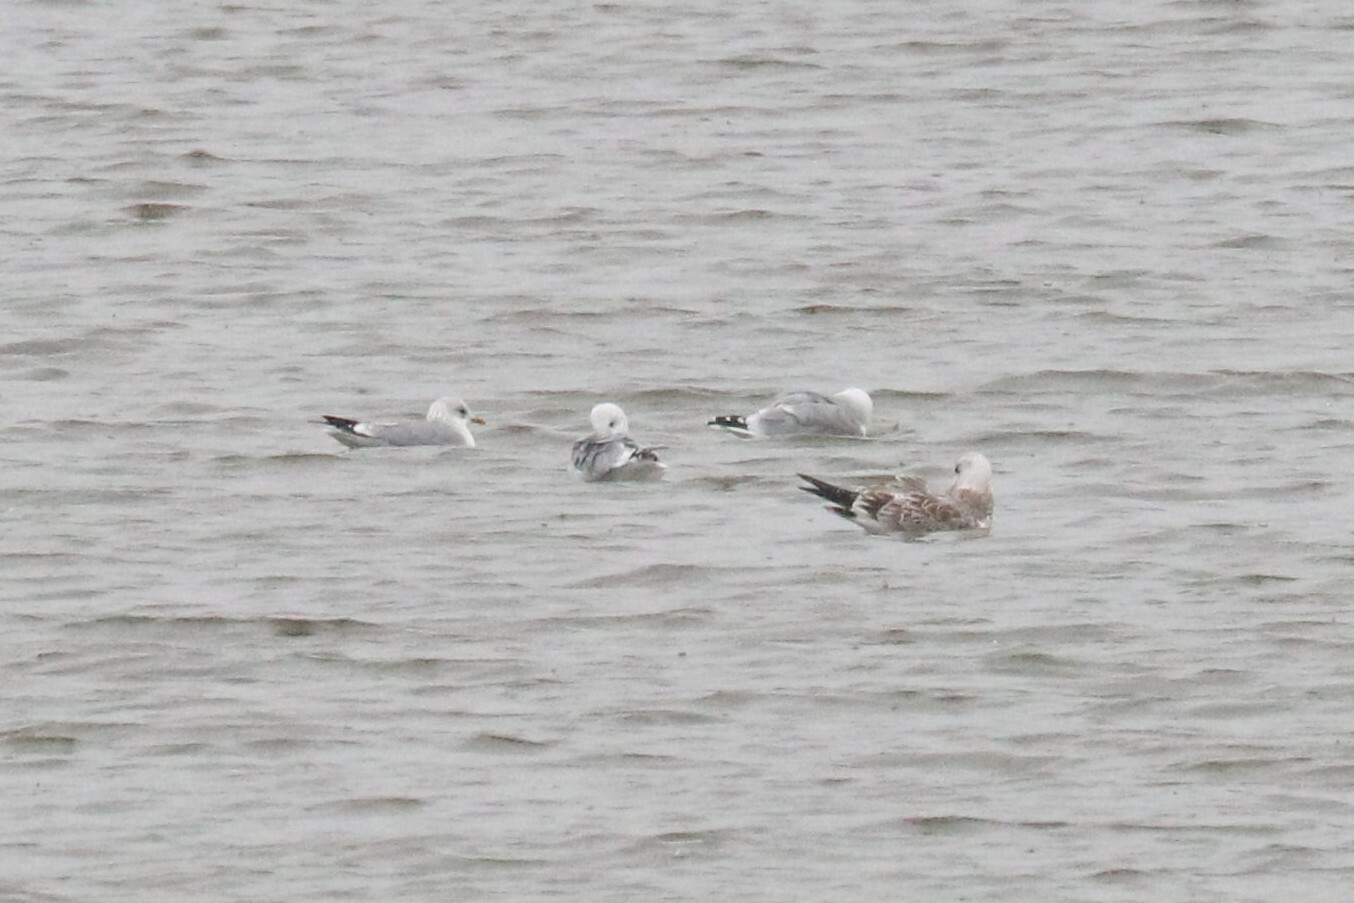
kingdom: Animalia
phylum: Chordata
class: Aves
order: Charadriiformes
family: Laridae
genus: Larus
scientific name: Larus canus
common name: Mew gull
